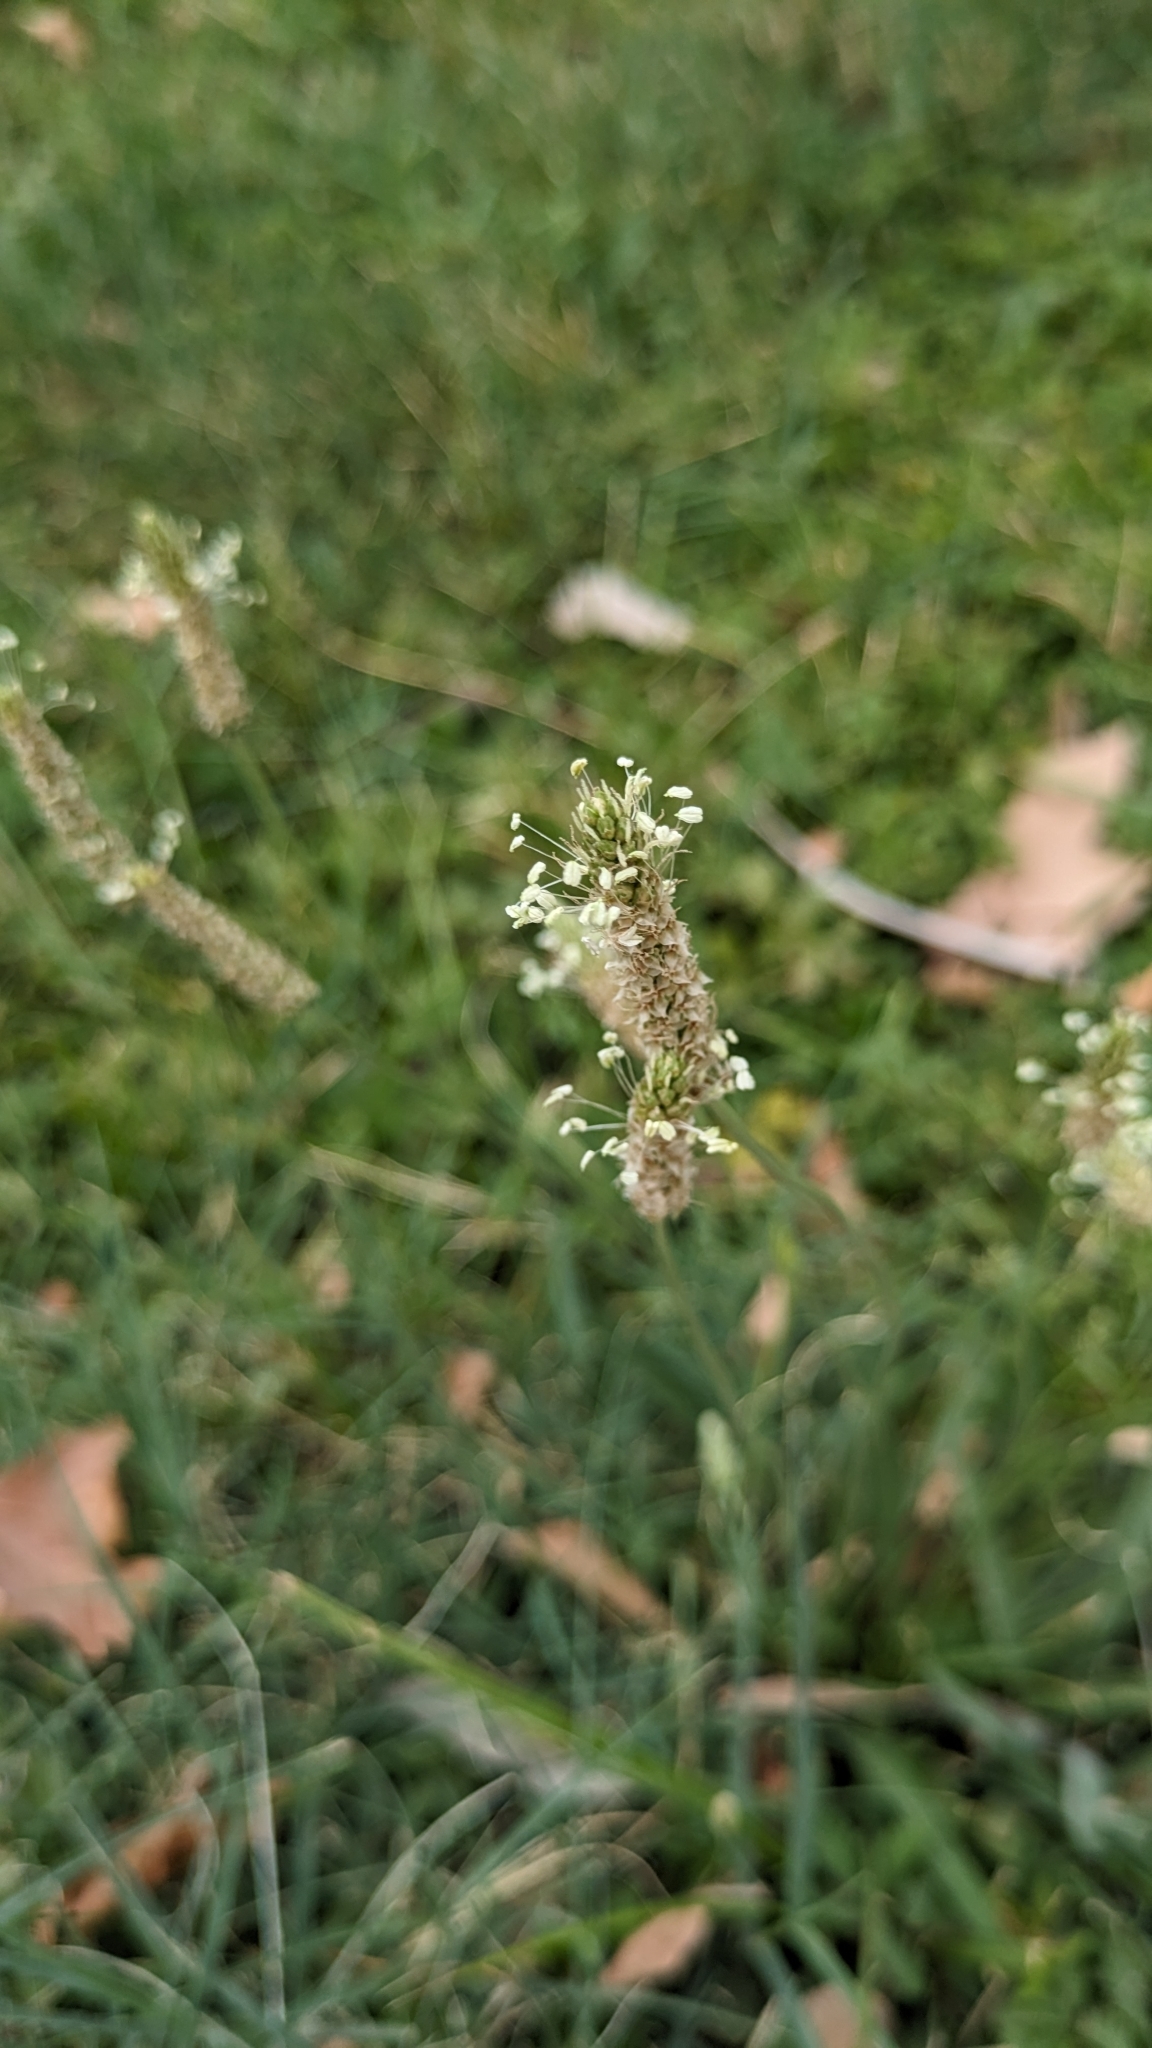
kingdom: Plantae
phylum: Tracheophyta
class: Magnoliopsida
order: Lamiales
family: Plantaginaceae
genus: Plantago
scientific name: Plantago lanceolata
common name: Ribwort plantain
